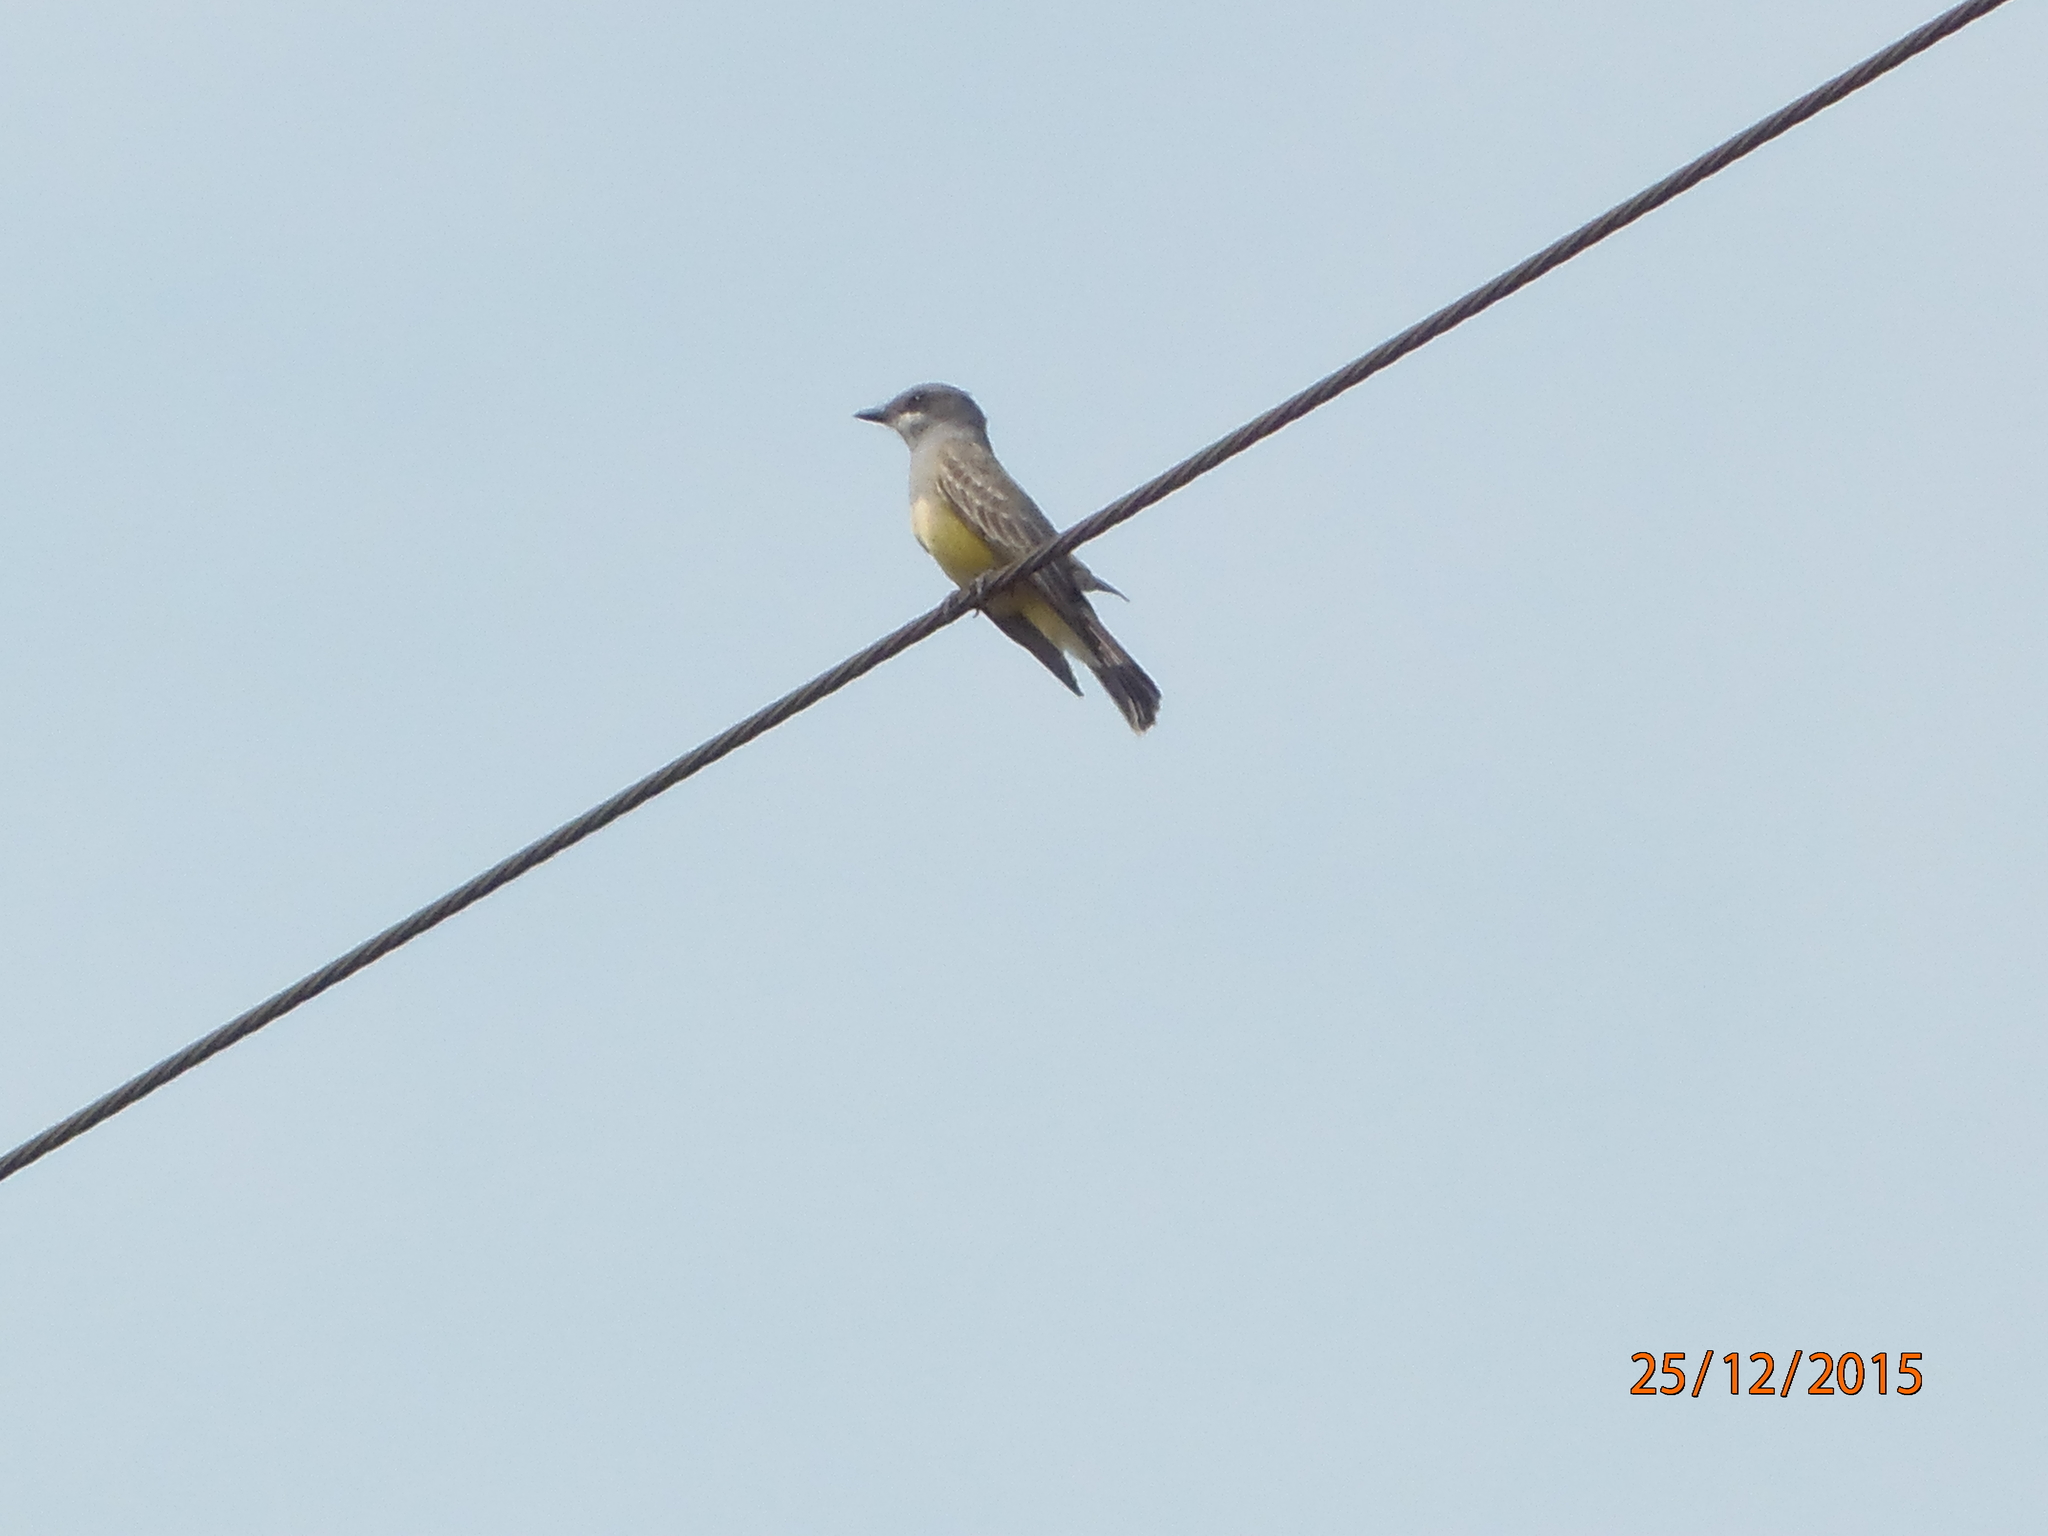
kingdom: Animalia
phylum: Chordata
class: Aves
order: Passeriformes
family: Tyrannidae
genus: Tyrannus
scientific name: Tyrannus vociferans
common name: Cassin's kingbird
